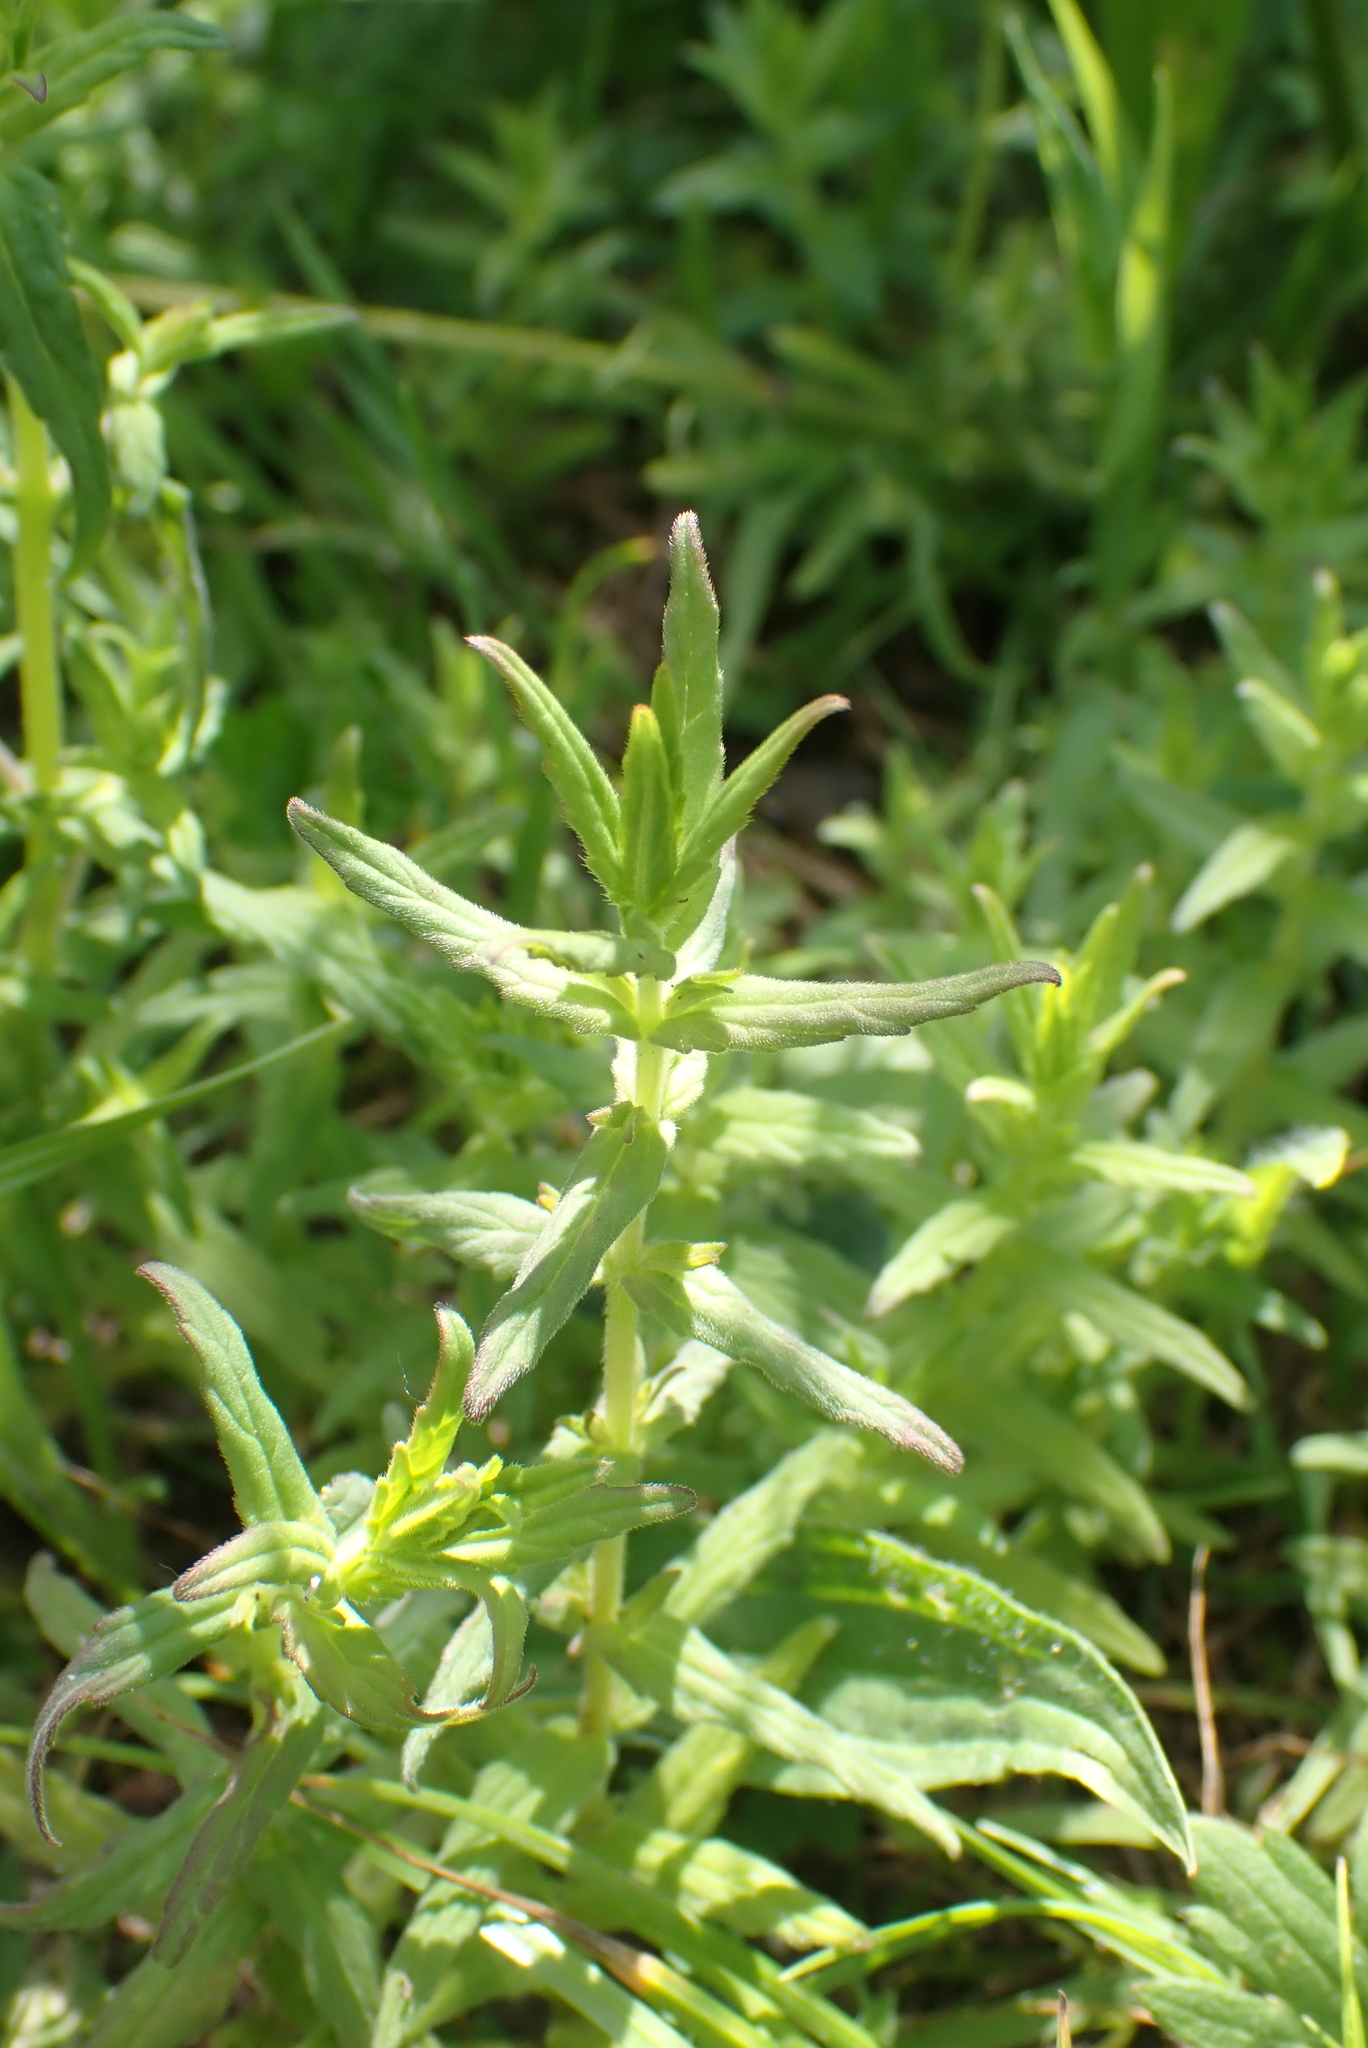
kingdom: Plantae
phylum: Tracheophyta
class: Magnoliopsida
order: Lamiales
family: Orobanchaceae
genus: Odontites
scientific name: Odontites vernus
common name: Red bartsia
